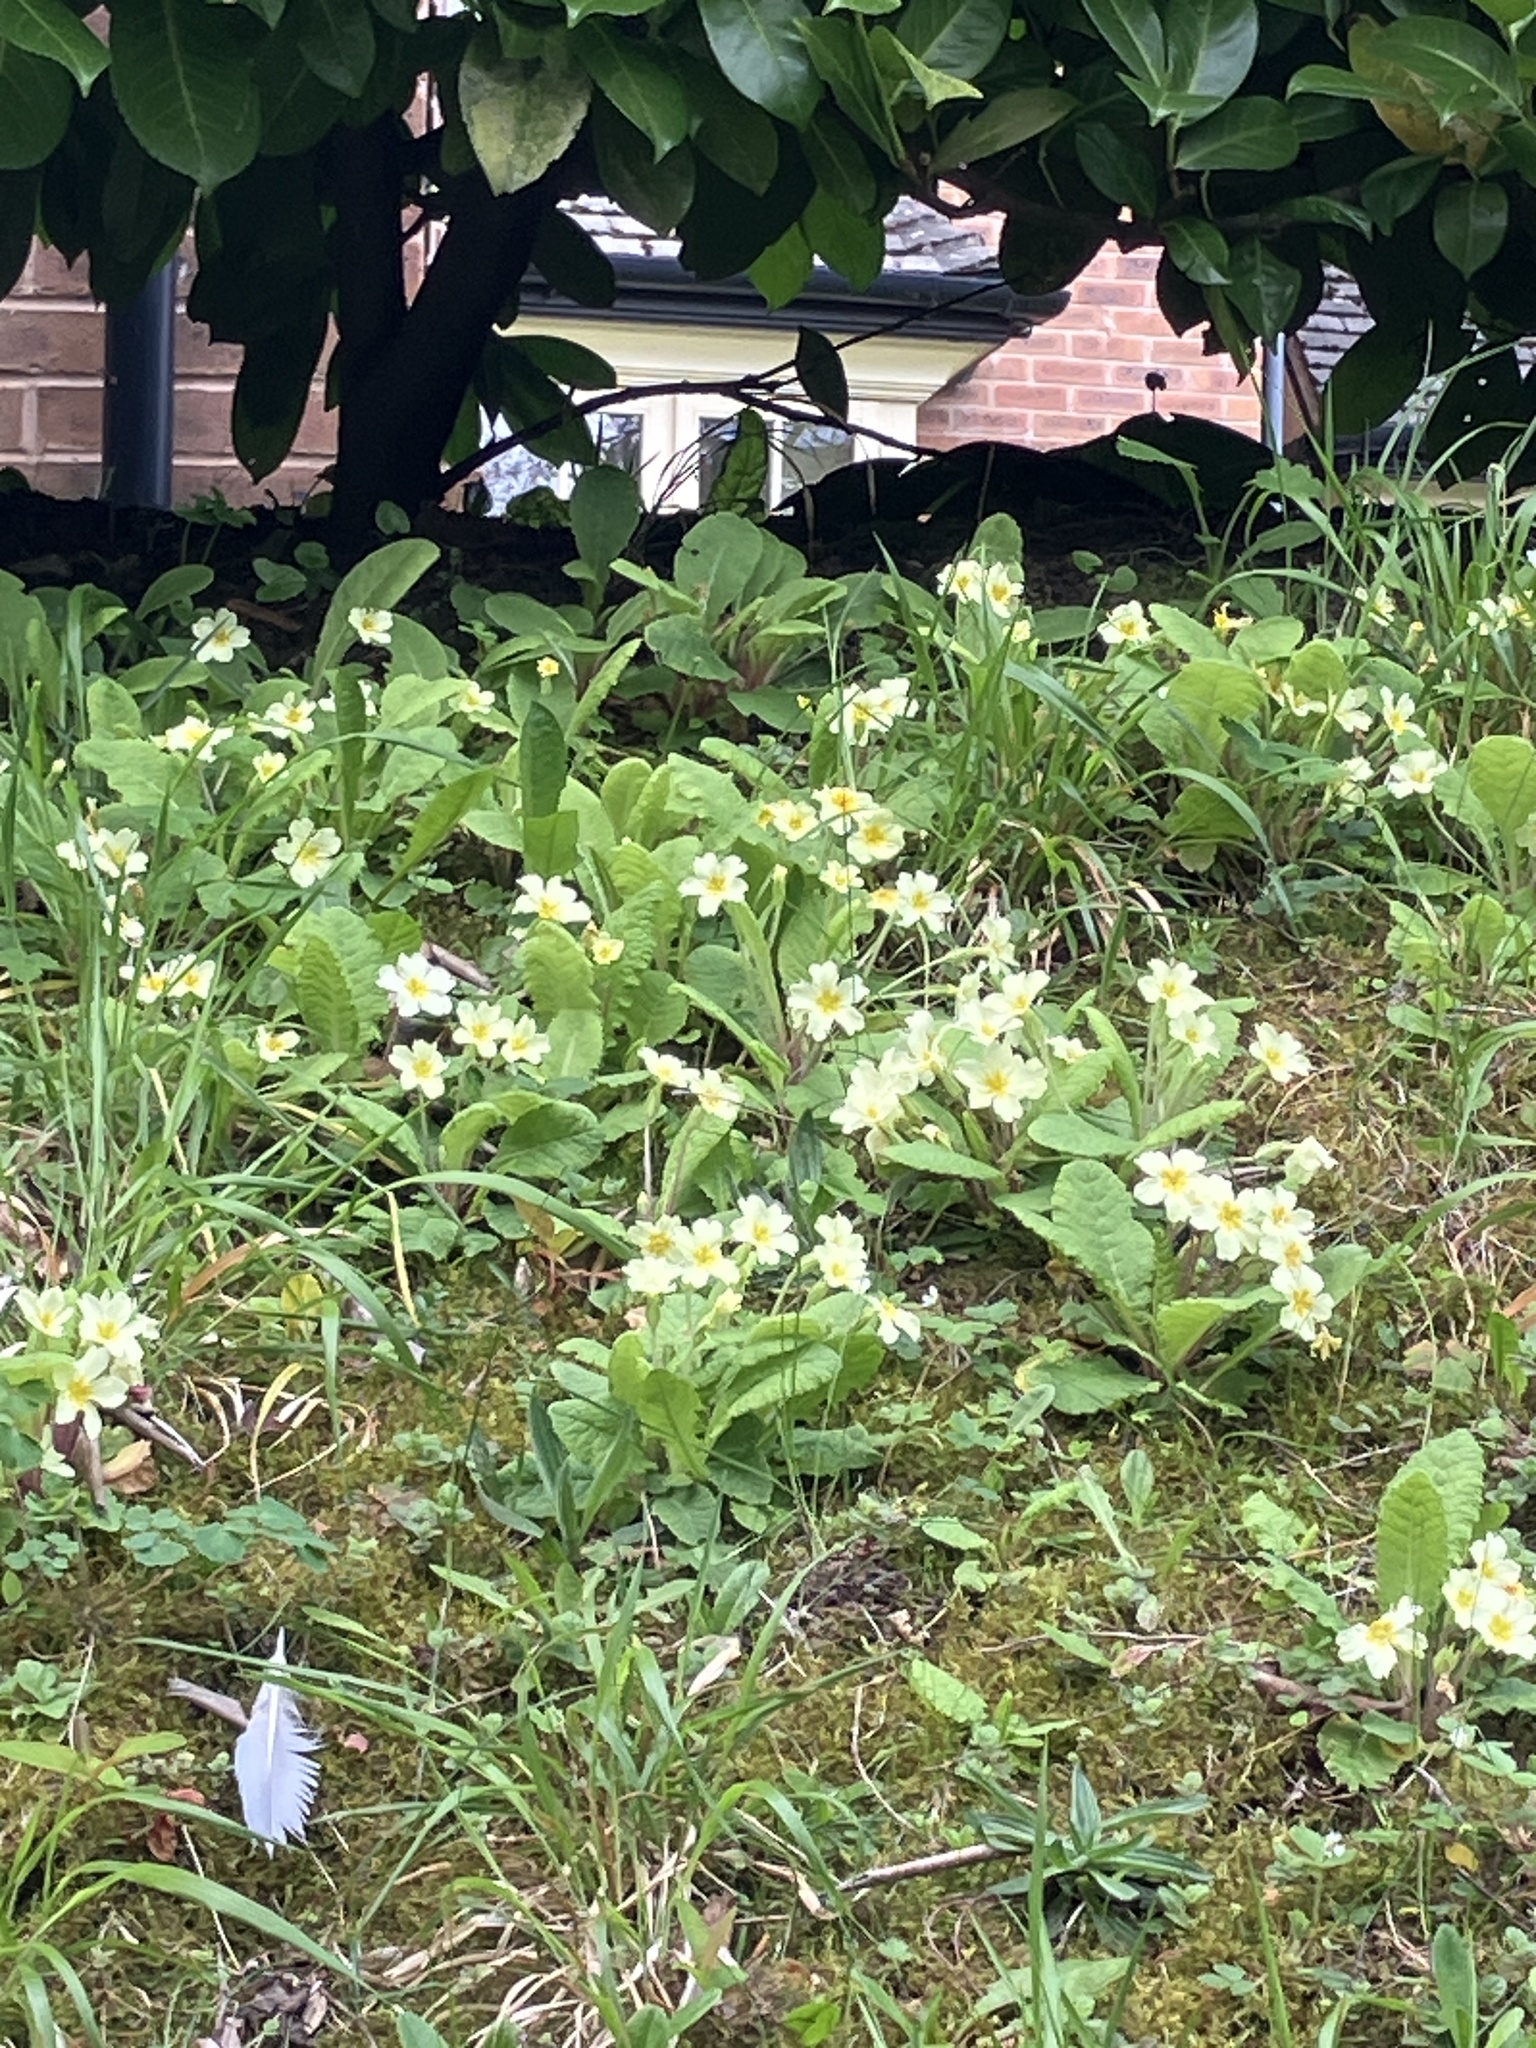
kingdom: Plantae
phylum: Tracheophyta
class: Magnoliopsida
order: Ericales
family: Primulaceae
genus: Primula
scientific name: Primula vulgaris
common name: Primrose
